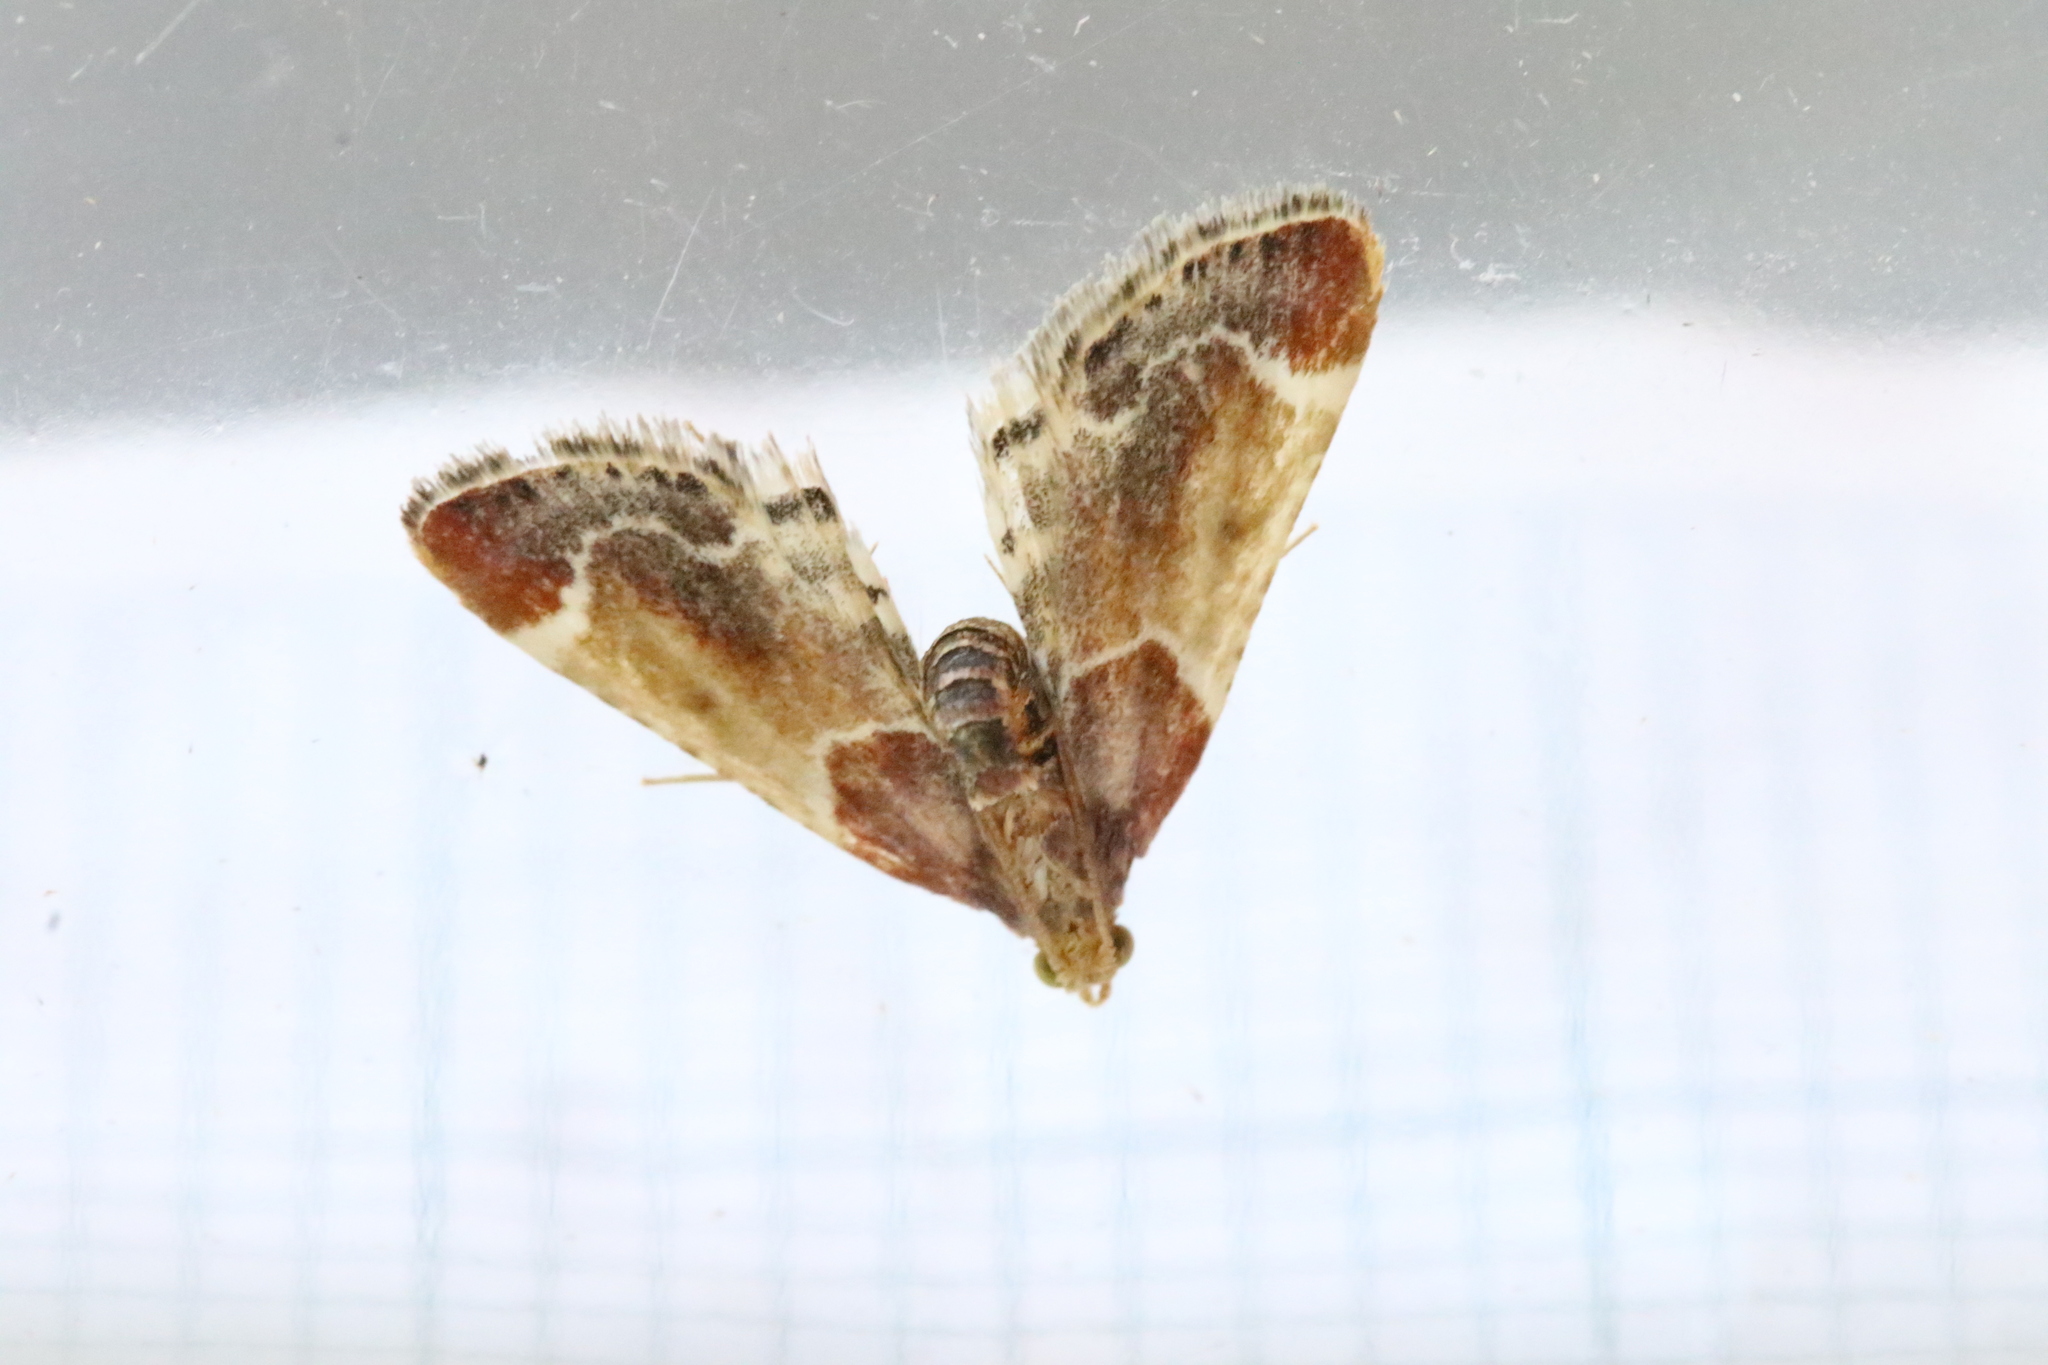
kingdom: Animalia
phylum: Arthropoda
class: Insecta
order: Lepidoptera
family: Pyralidae
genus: Pyralis
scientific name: Pyralis farinalis
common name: Meal moth
